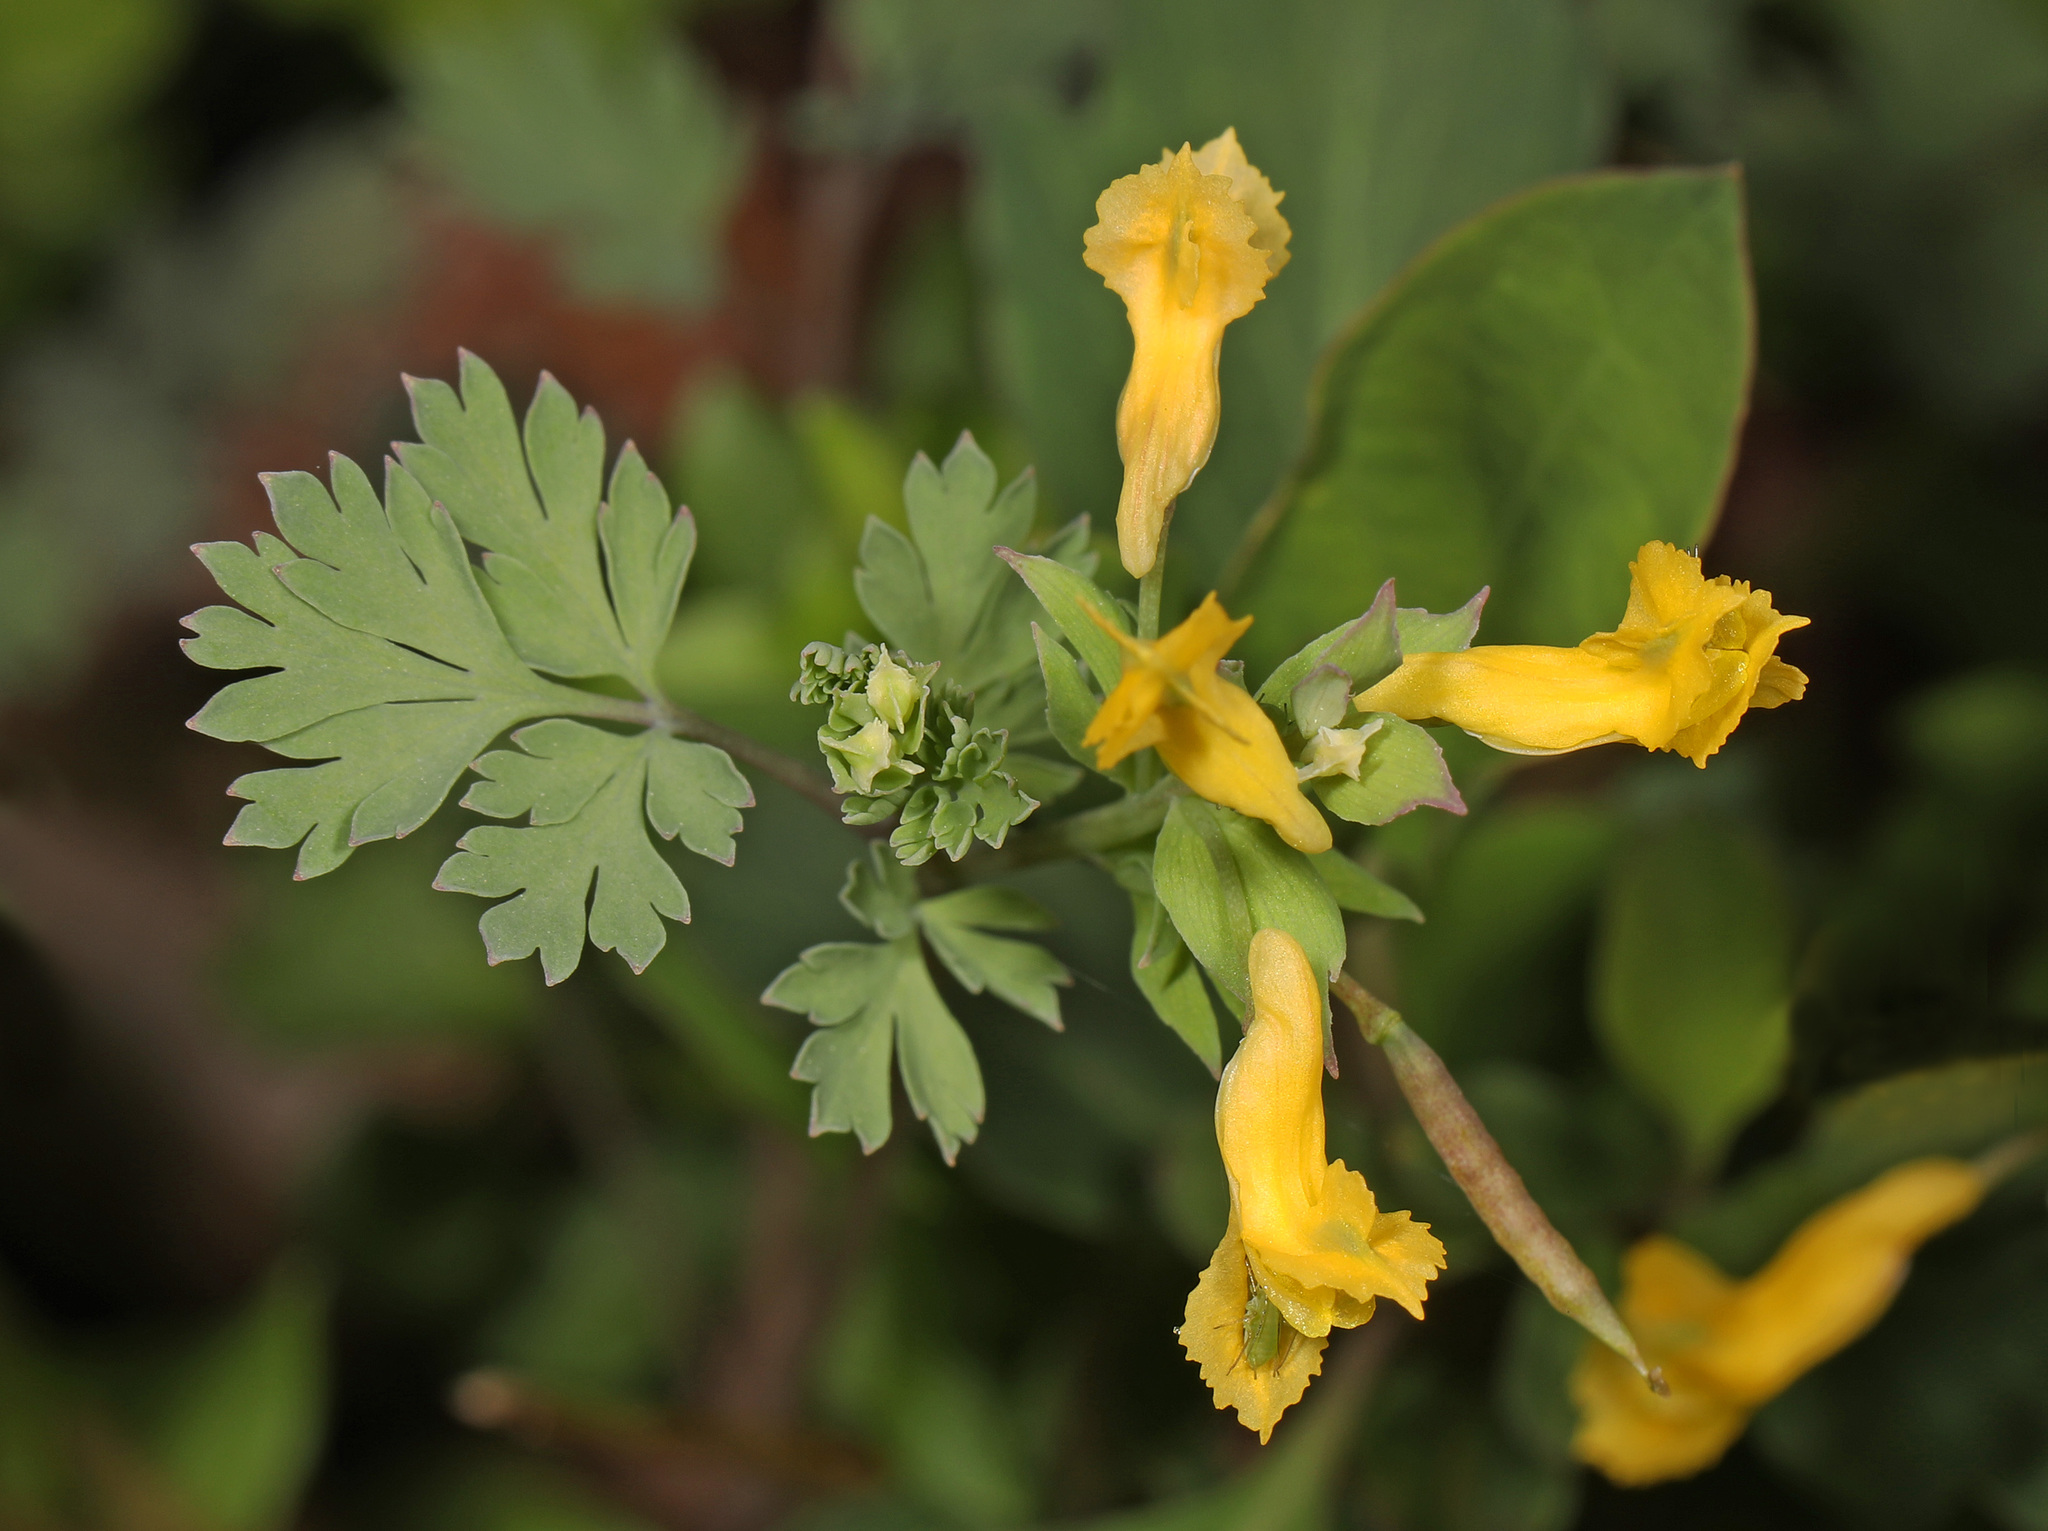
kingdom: Plantae
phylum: Tracheophyta
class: Magnoliopsida
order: Ranunculales
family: Papaveraceae
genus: Corydalis
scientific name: Corydalis flavula
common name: Yellow corydalis
